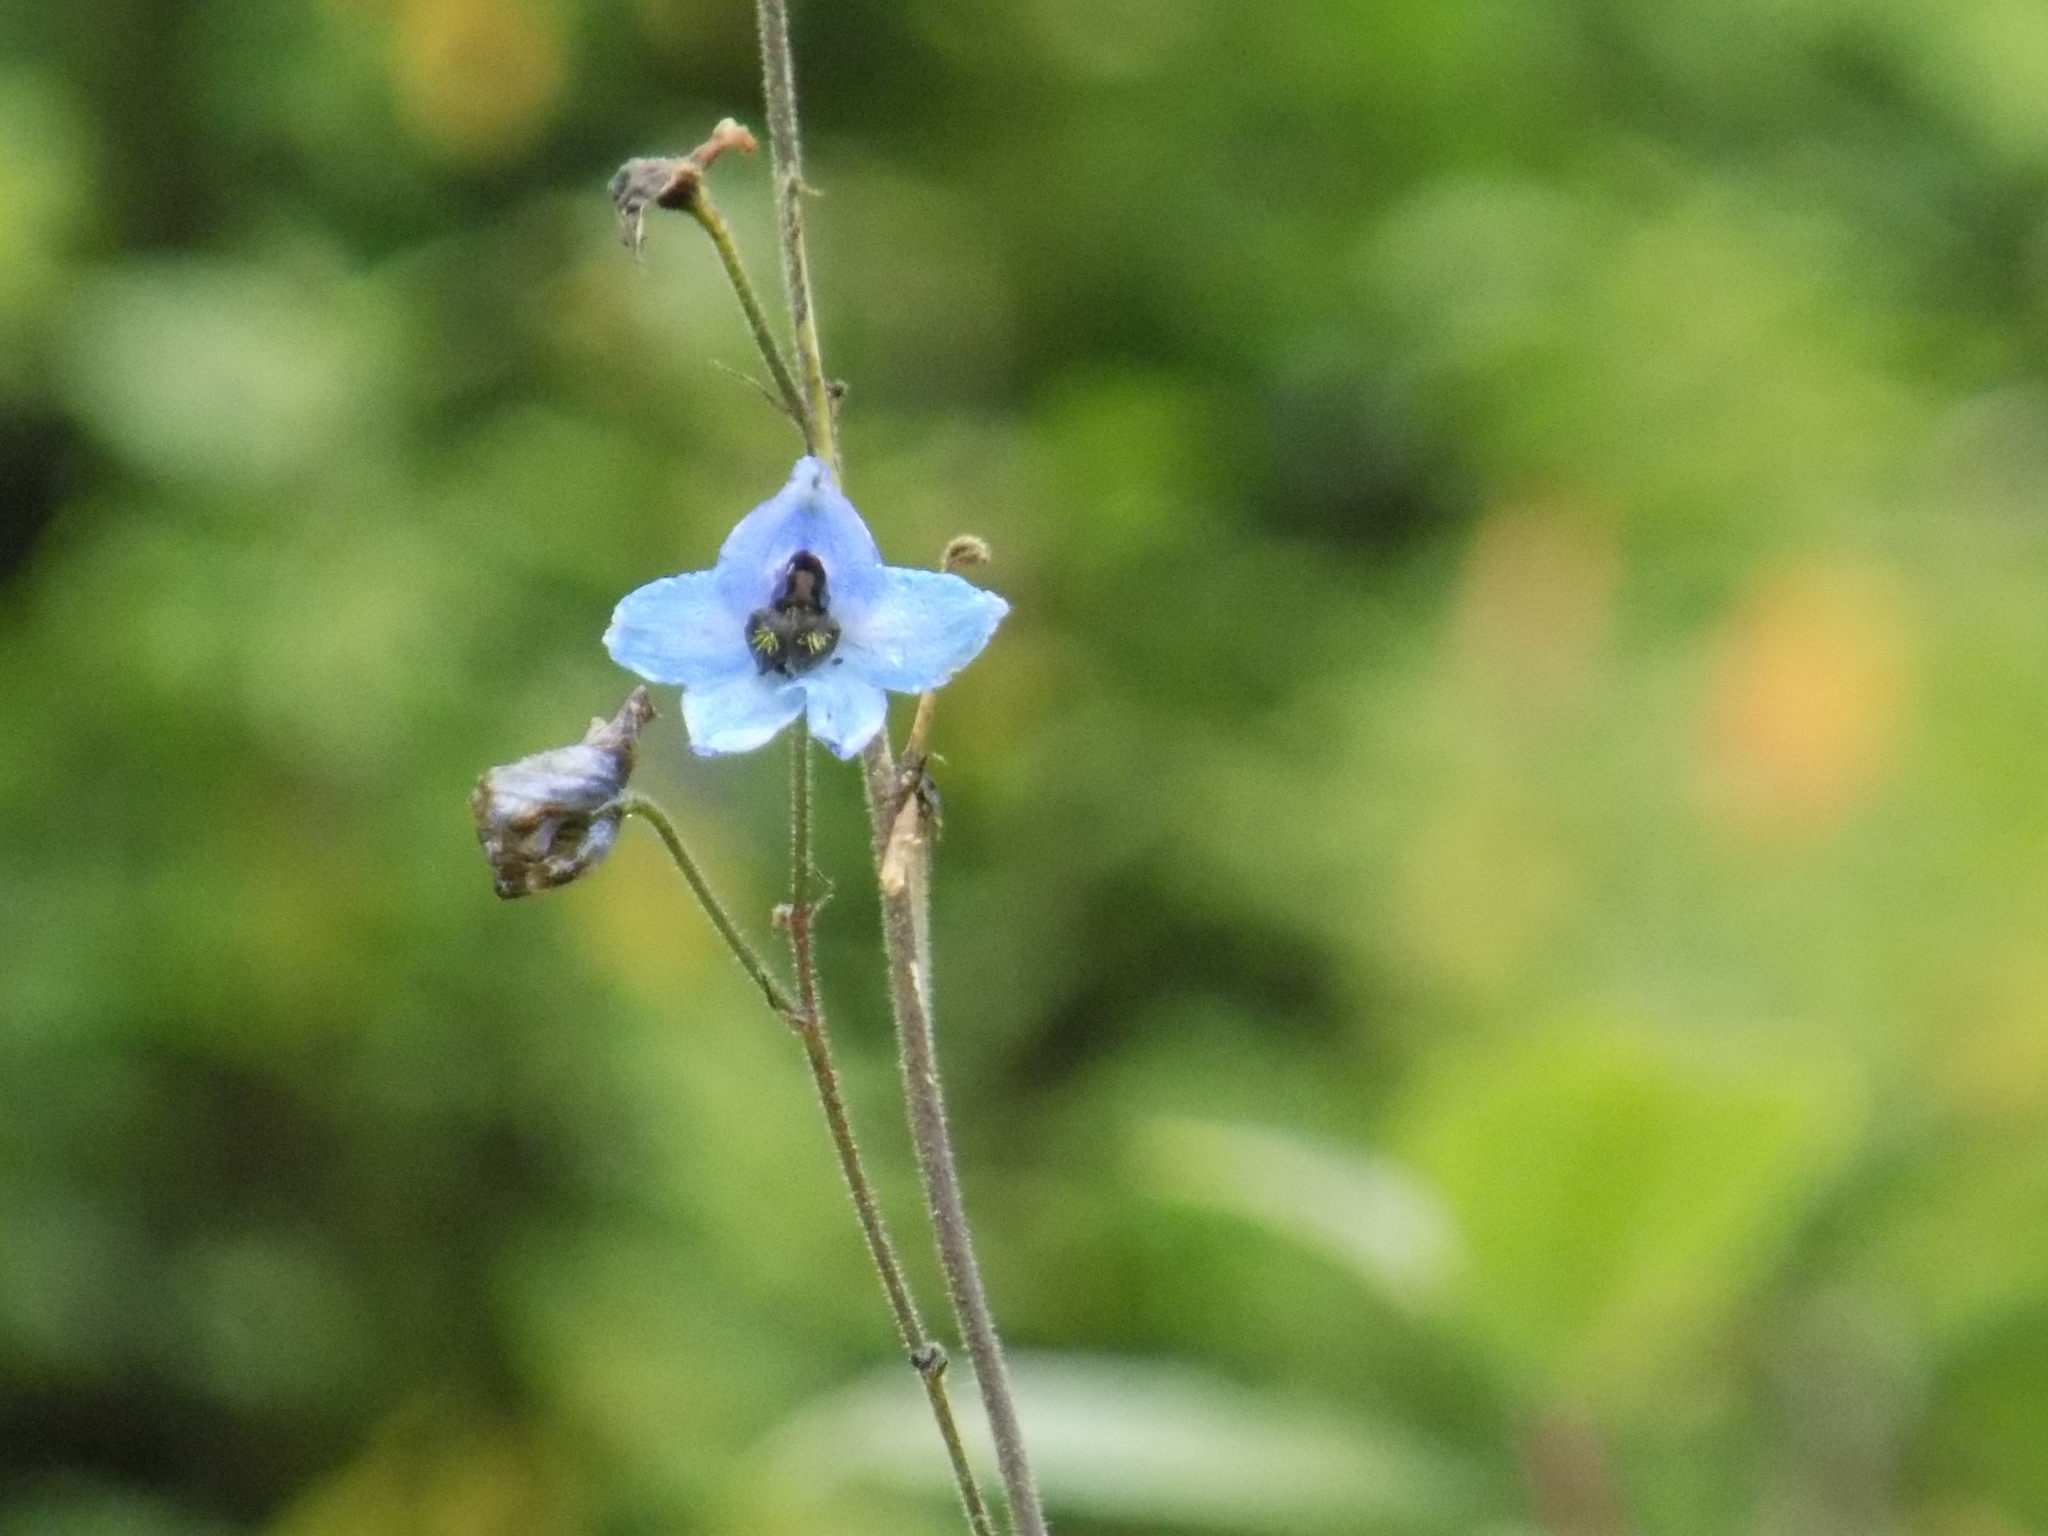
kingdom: Plantae
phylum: Tracheophyta
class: Magnoliopsida
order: Ranunculales
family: Ranunculaceae
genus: Delphinium
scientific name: Delphinium elatum
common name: Candle larkspur
